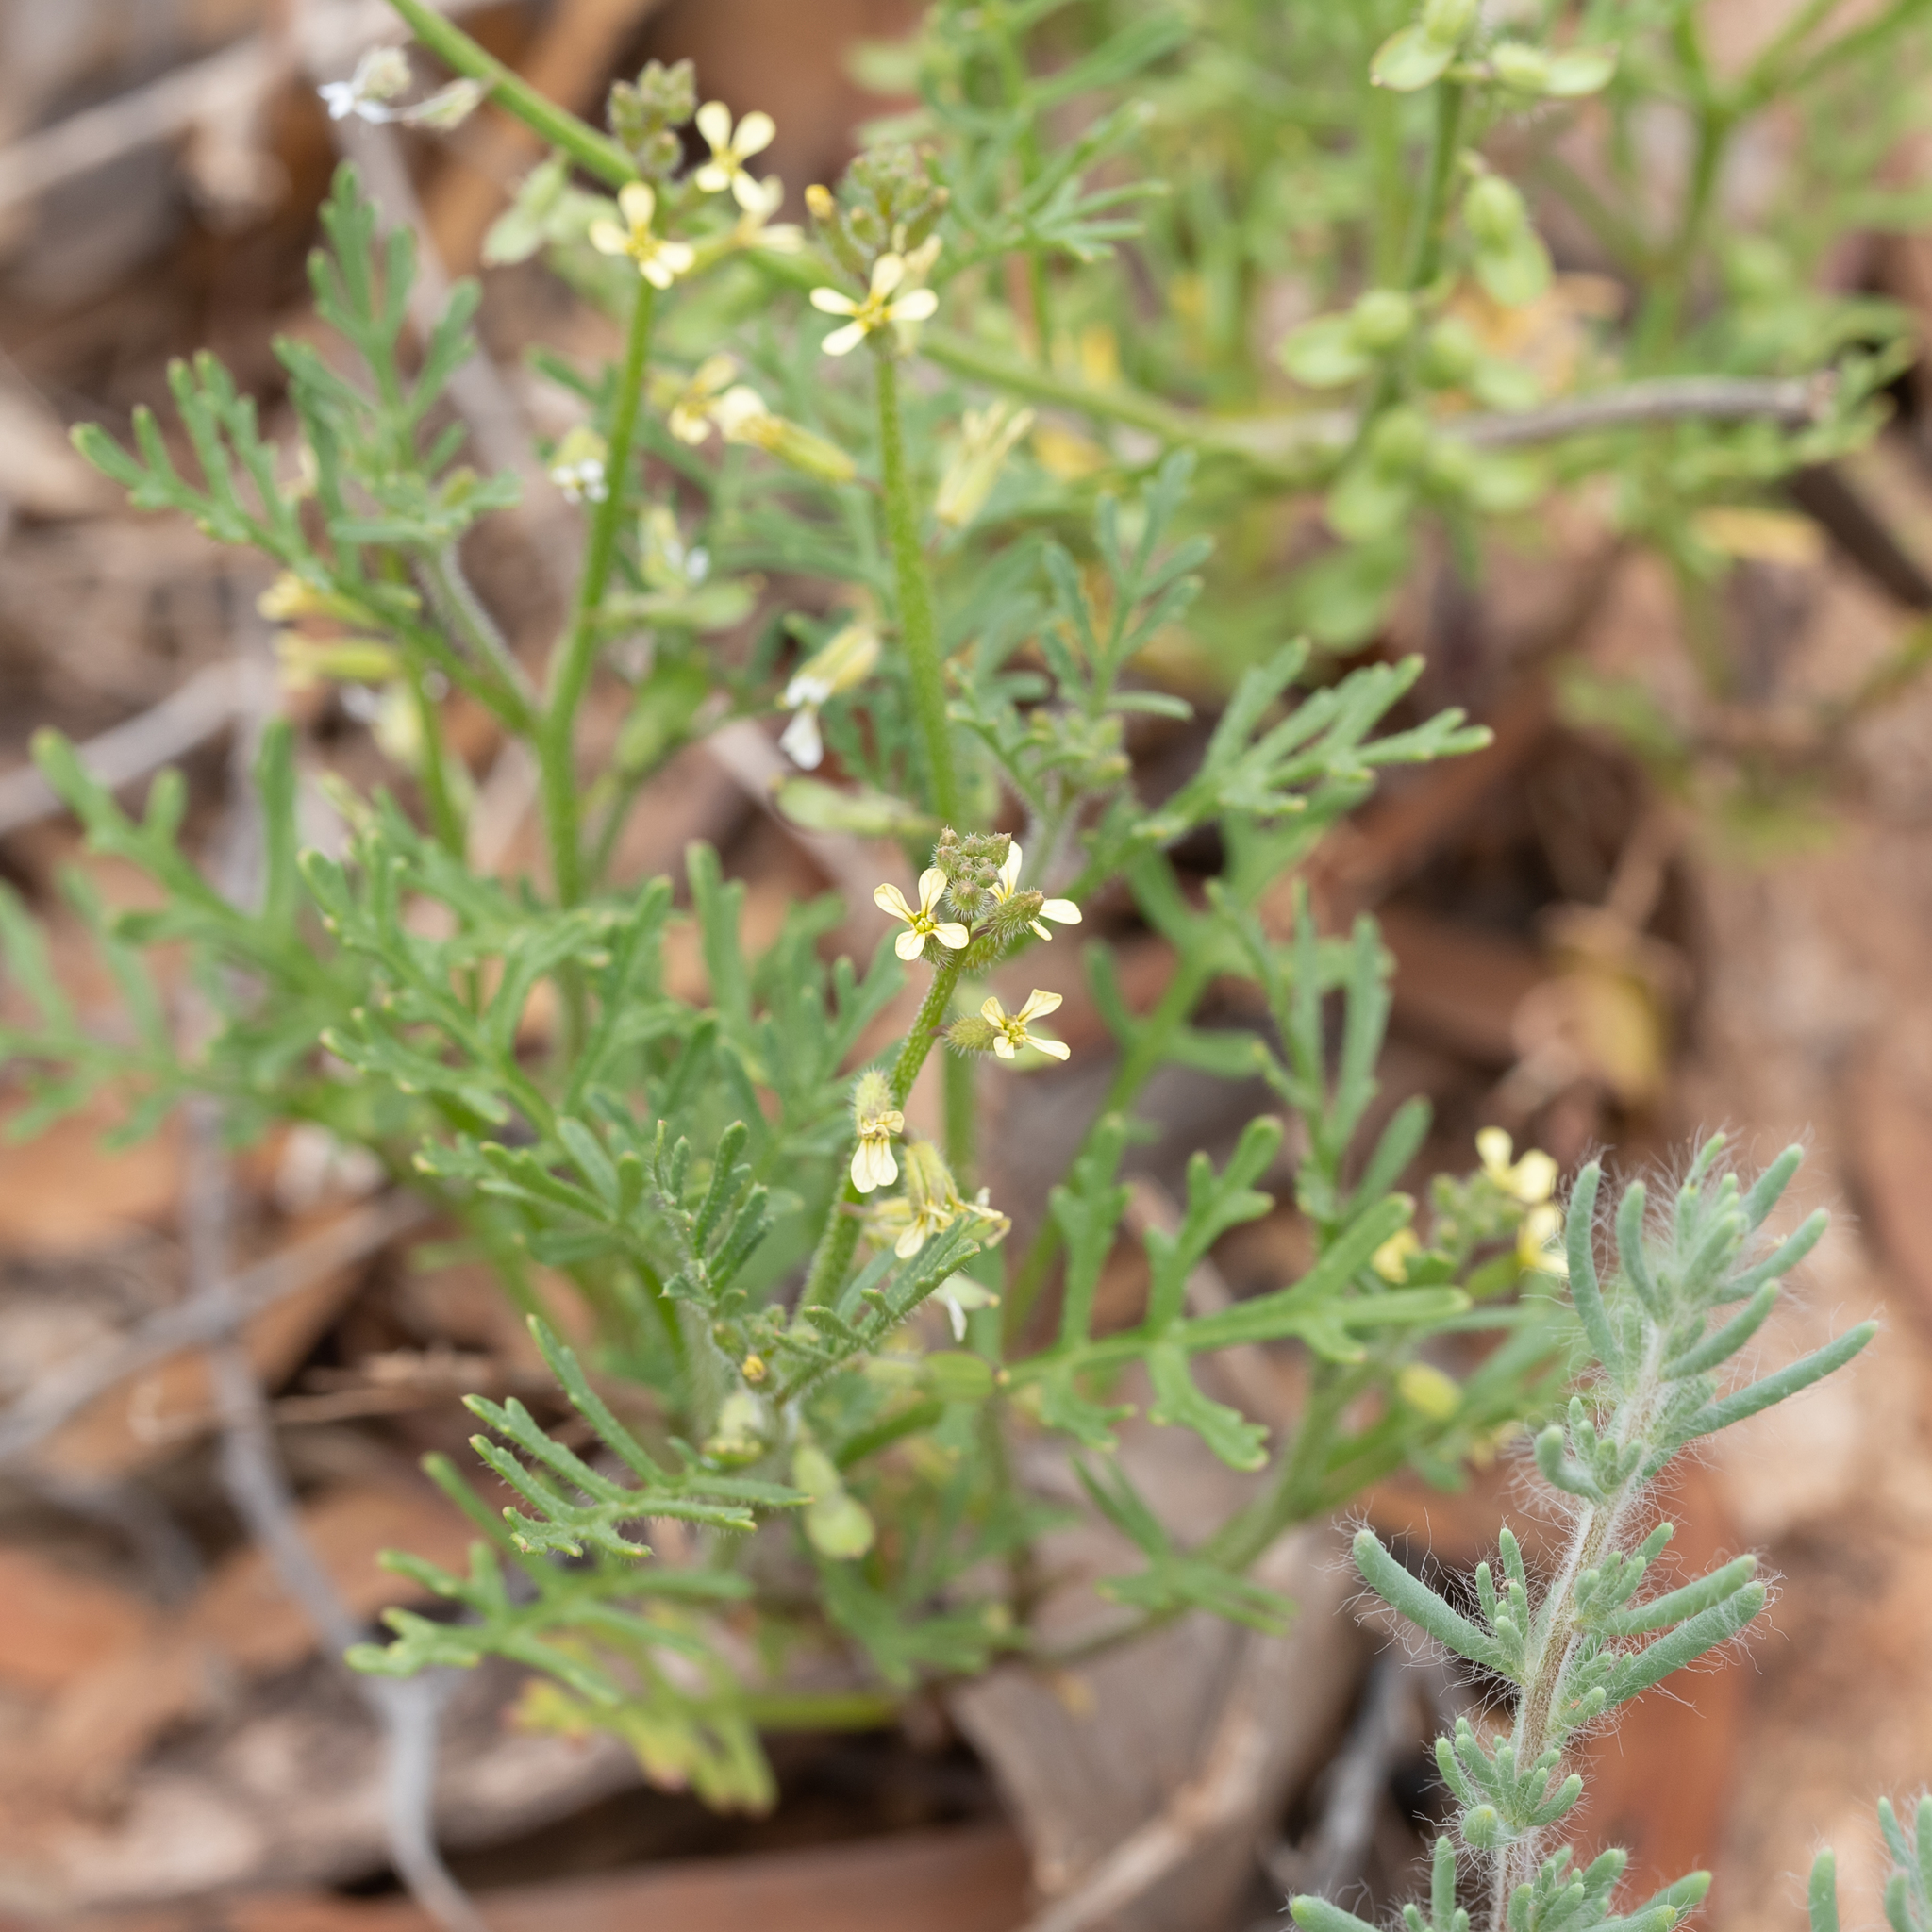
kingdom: Plantae
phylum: Tracheophyta
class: Magnoliopsida
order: Brassicales
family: Brassicaceae
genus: Carrichtera
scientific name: Carrichtera annua
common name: Cress rocket
